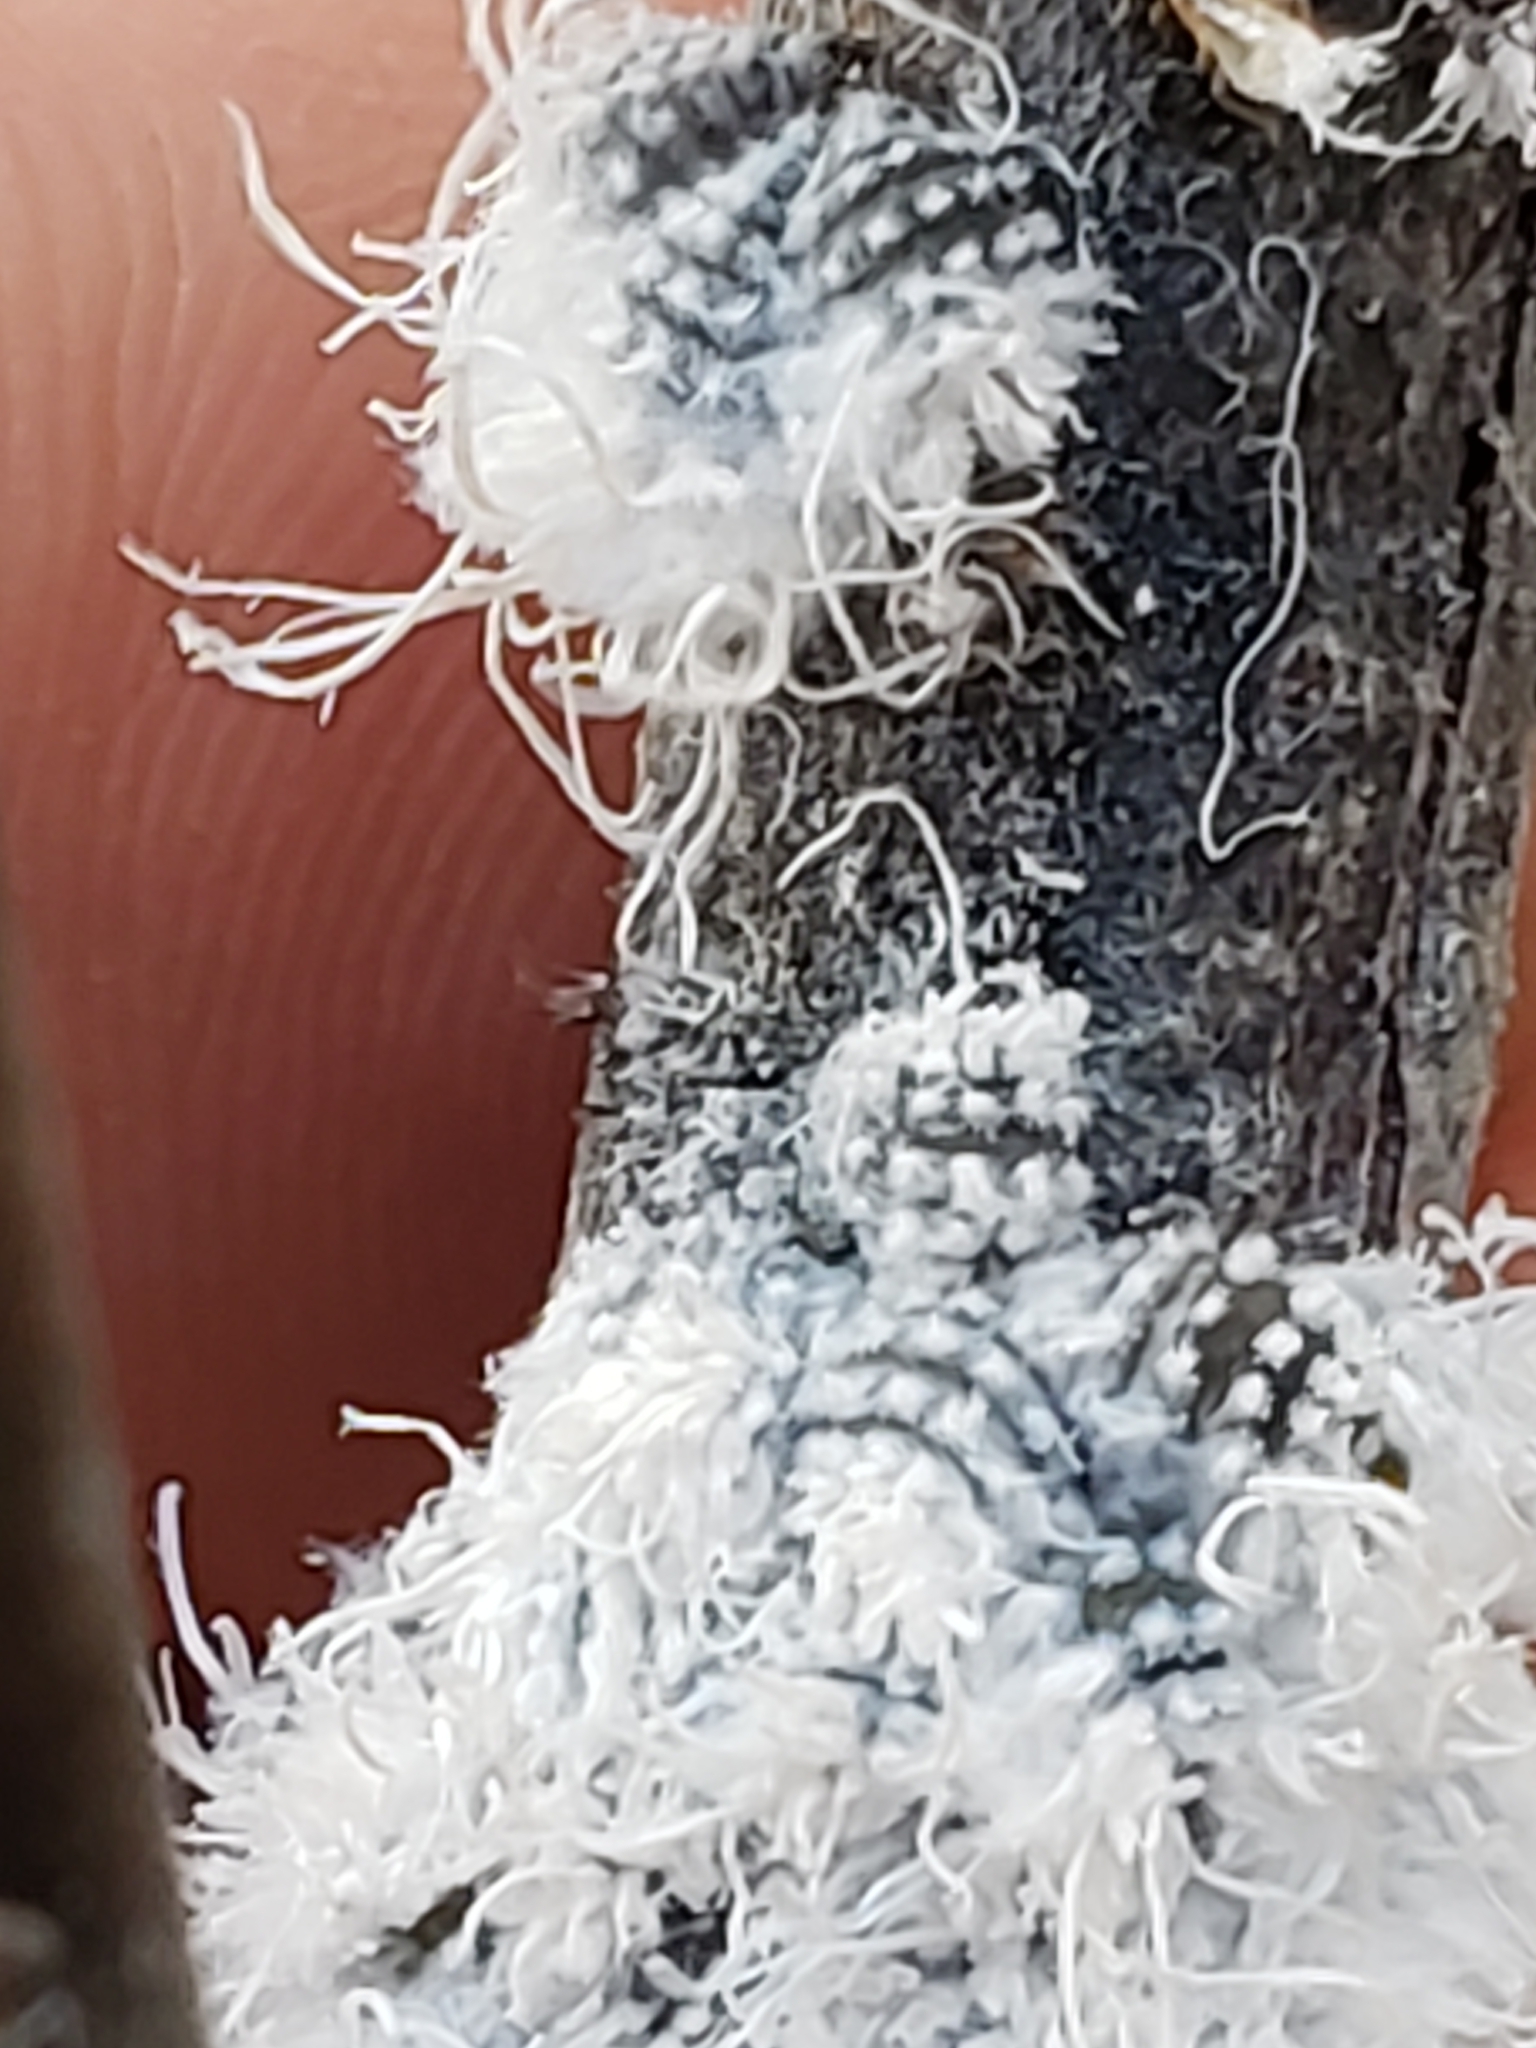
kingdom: Animalia
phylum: Arthropoda
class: Insecta
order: Hemiptera
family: Aphididae
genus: Prociphilus
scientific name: Prociphilus tessellatus
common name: Woolly alder aphid
